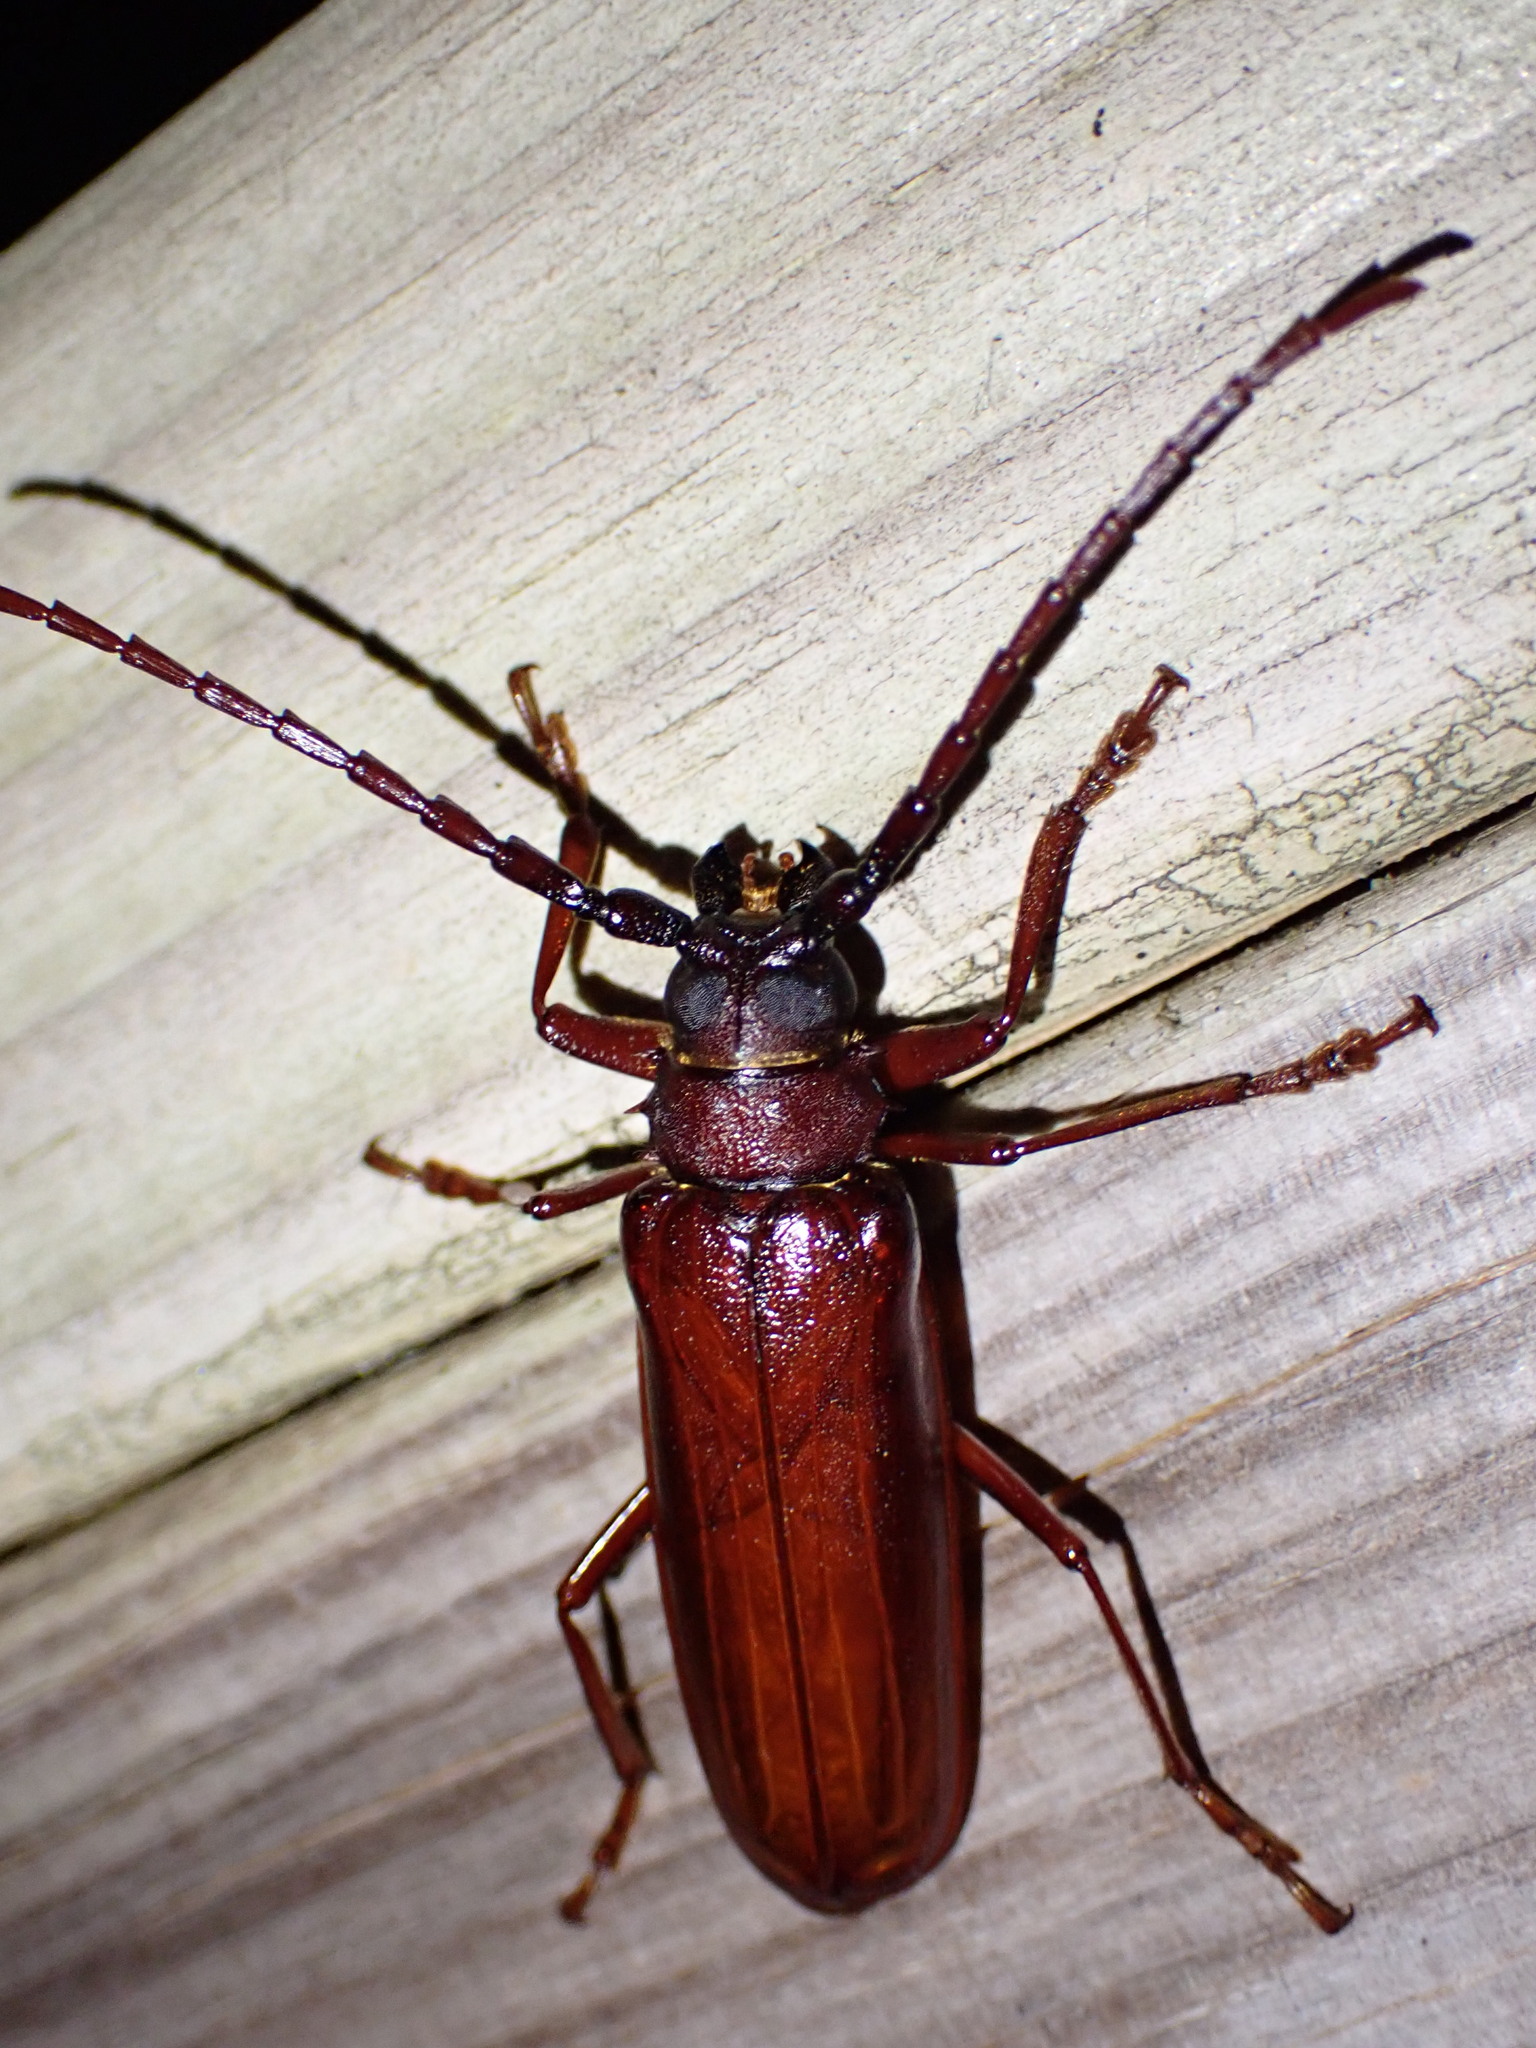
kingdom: Animalia
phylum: Arthropoda
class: Insecta
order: Coleoptera
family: Cerambycidae
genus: Orthosoma
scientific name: Orthosoma brunneum
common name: Brown prionid beetle
